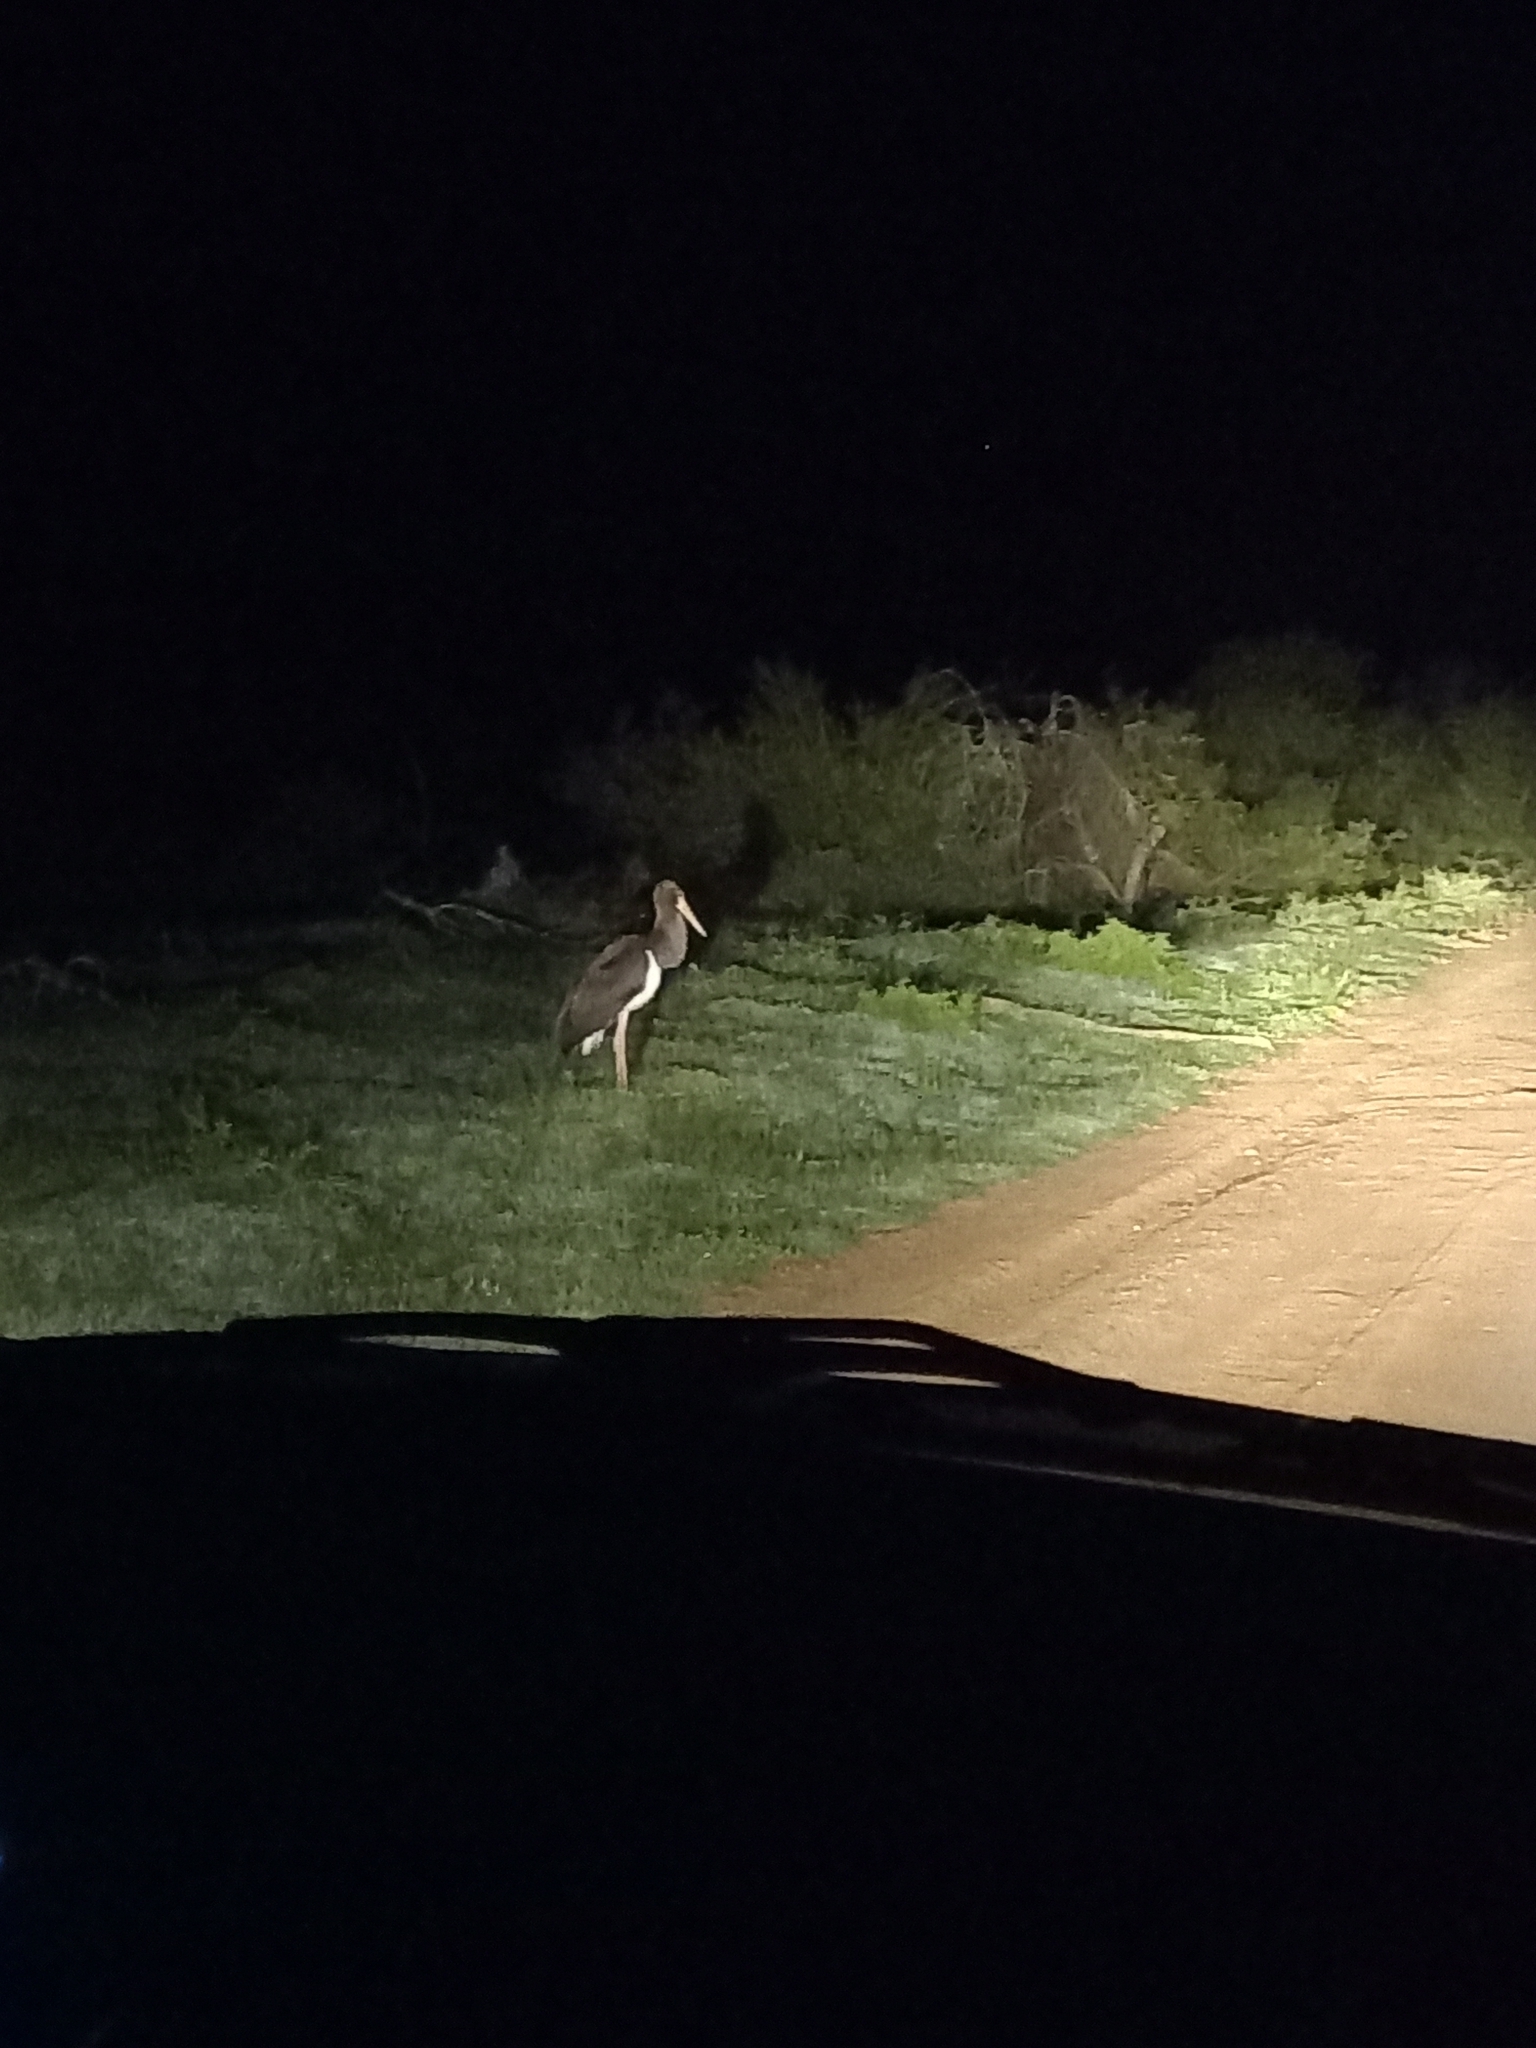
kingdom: Animalia
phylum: Chordata
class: Aves
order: Ciconiiformes
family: Ciconiidae
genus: Ciconia
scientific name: Ciconia nigra
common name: Black stork
